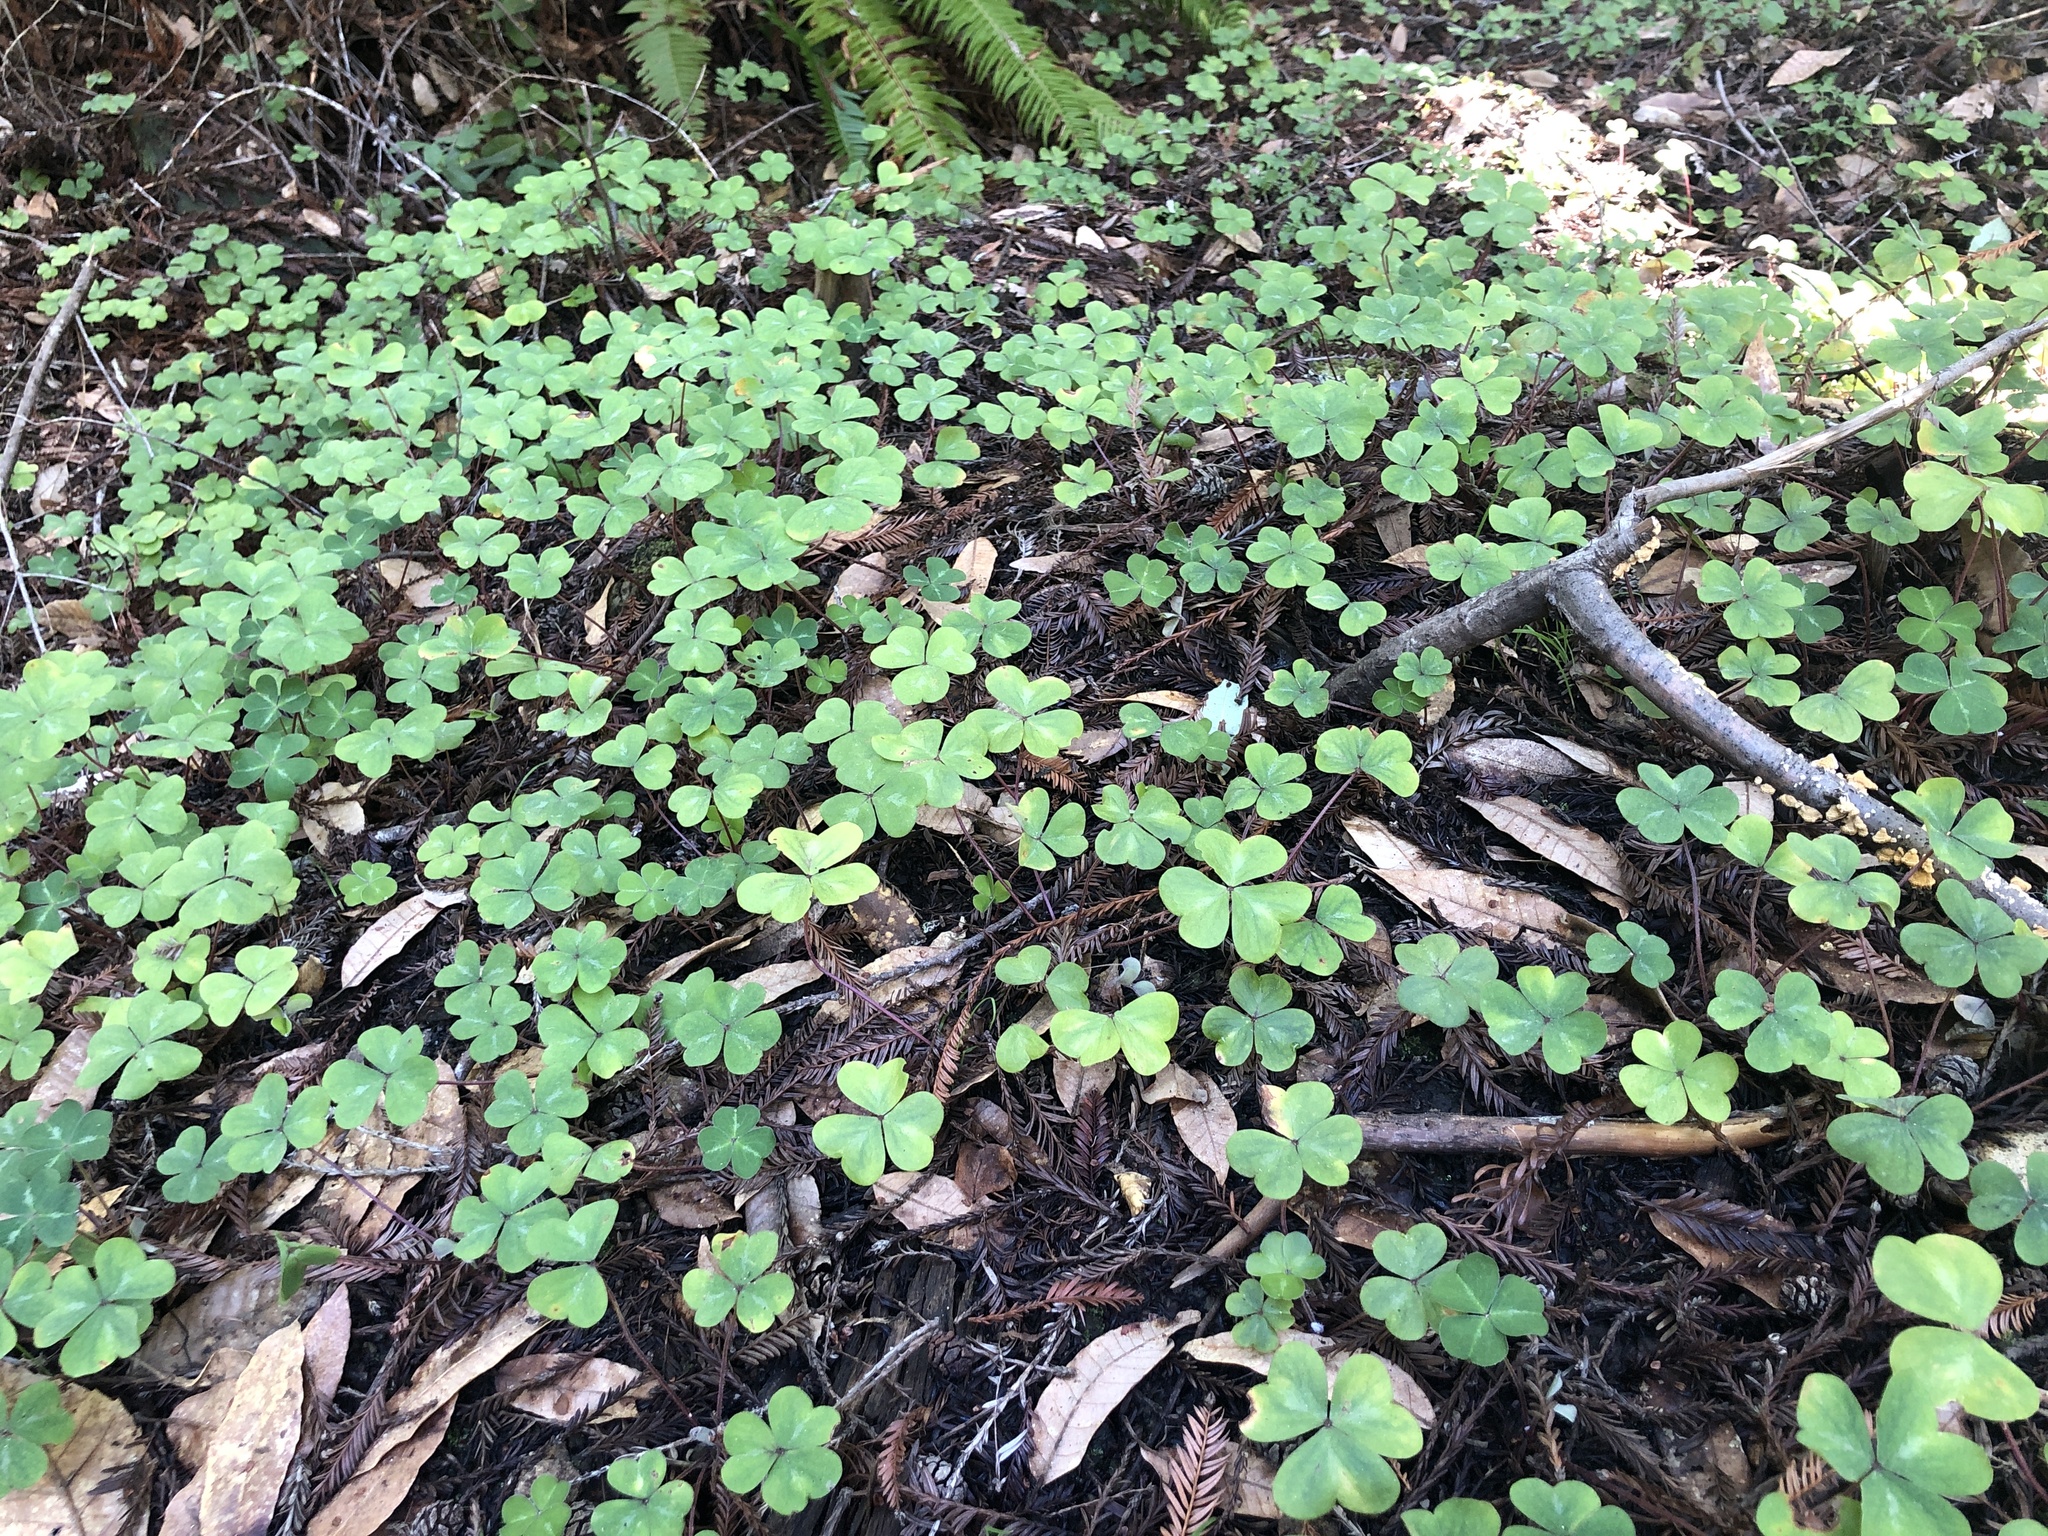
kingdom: Plantae
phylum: Tracheophyta
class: Magnoliopsida
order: Oxalidales
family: Oxalidaceae
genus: Oxalis
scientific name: Oxalis oregana
